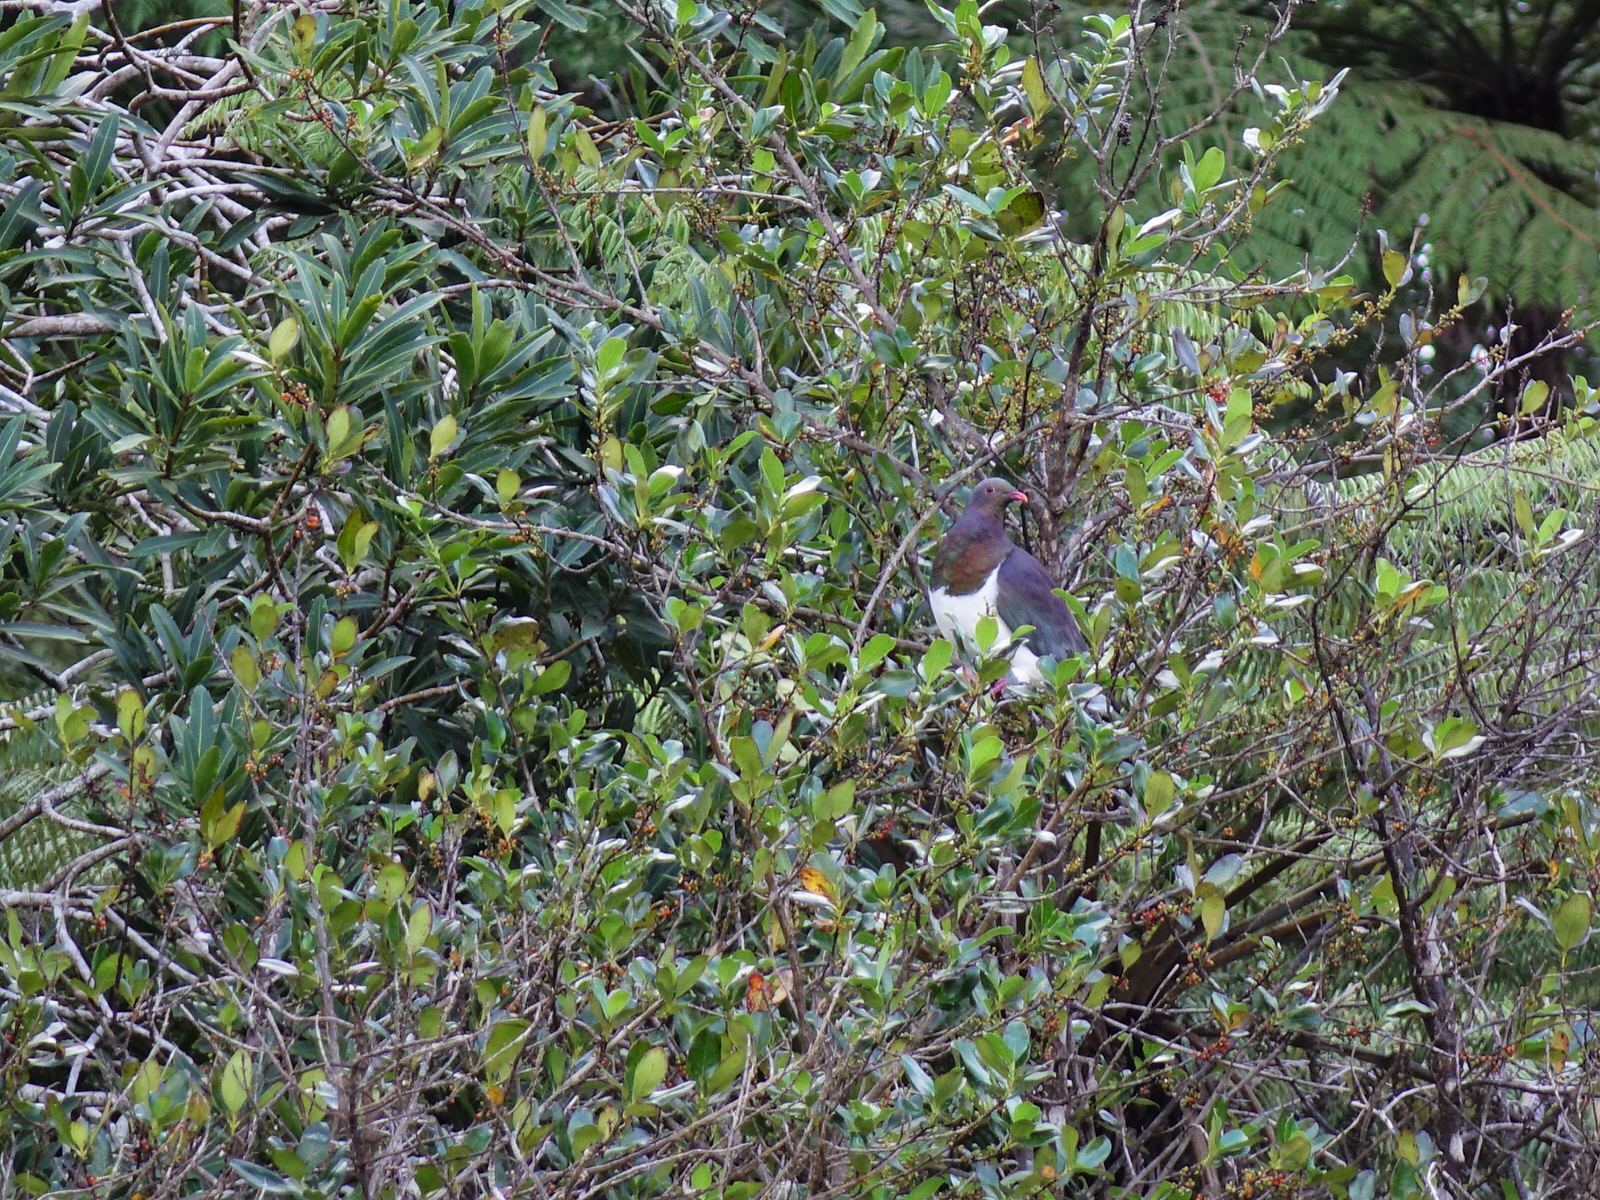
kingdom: Animalia
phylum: Chordata
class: Aves
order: Columbiformes
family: Columbidae
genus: Hemiphaga
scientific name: Hemiphaga novaeseelandiae
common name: New zealand pigeon
